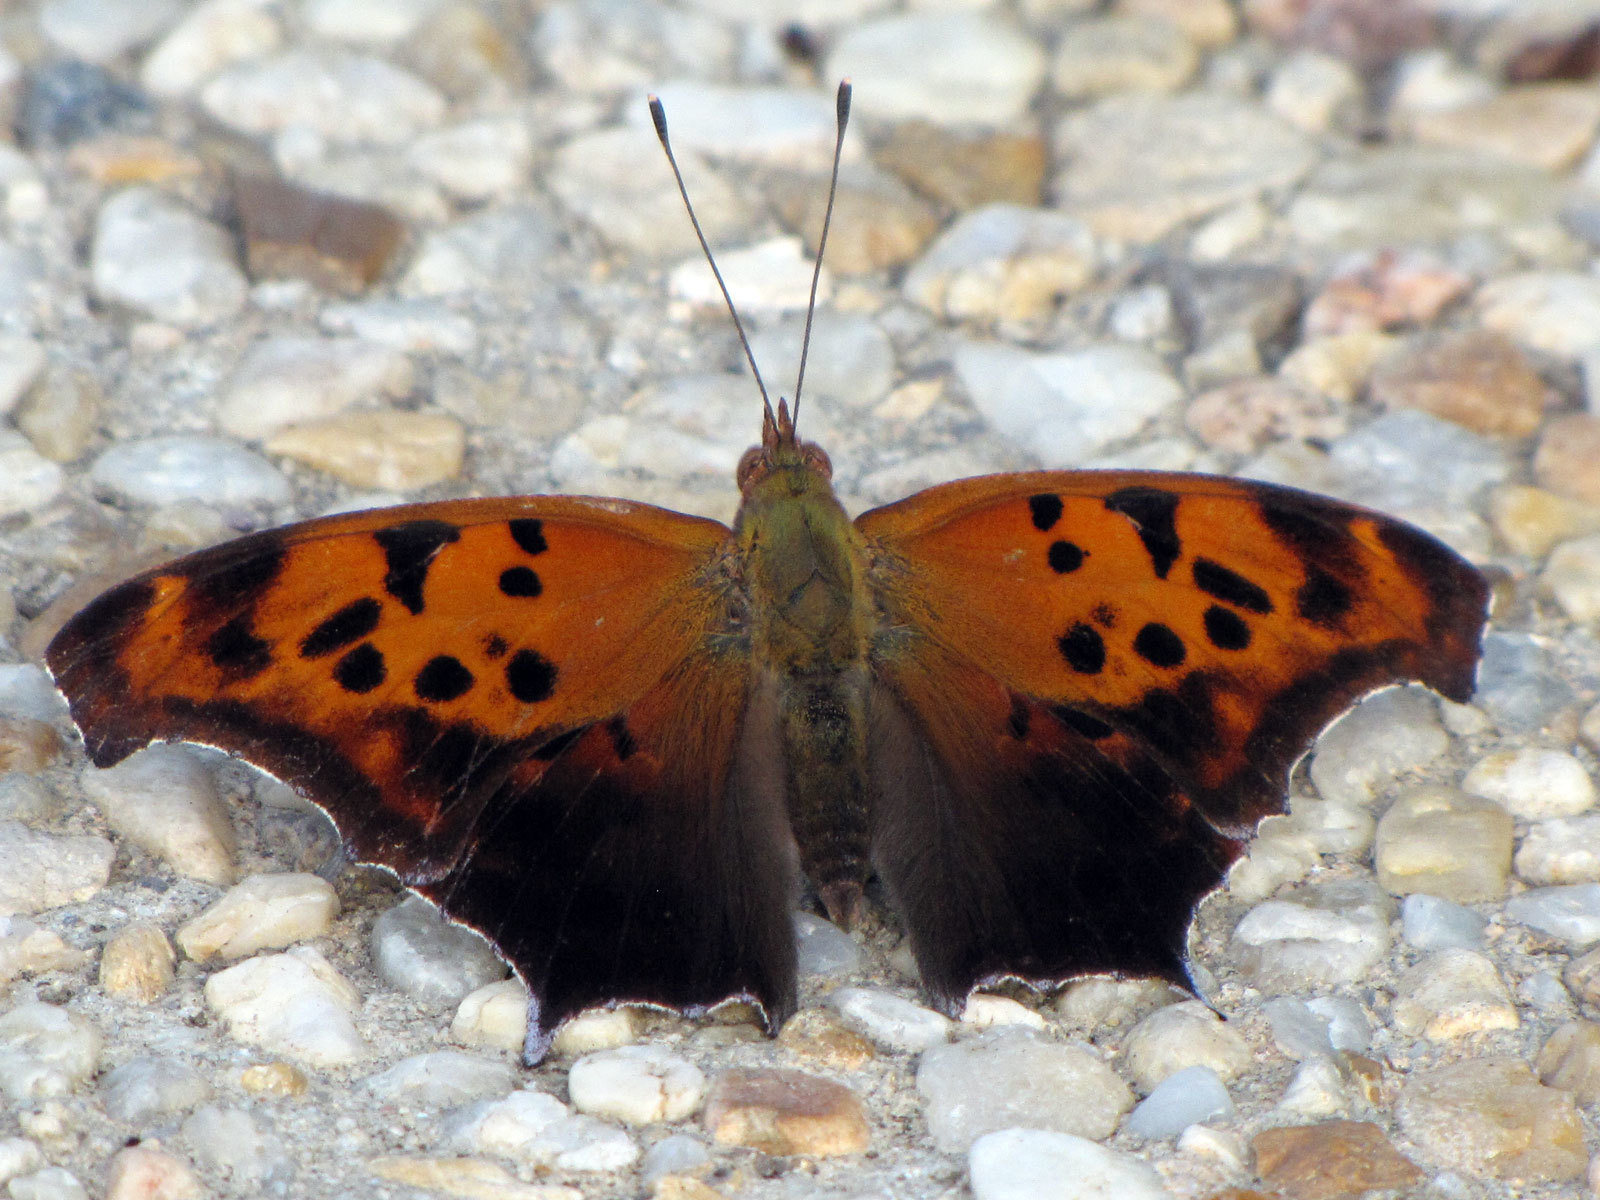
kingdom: Animalia
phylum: Arthropoda
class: Insecta
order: Lepidoptera
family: Nymphalidae
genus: Polygonia
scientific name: Polygonia interrogationis
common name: Question mark
